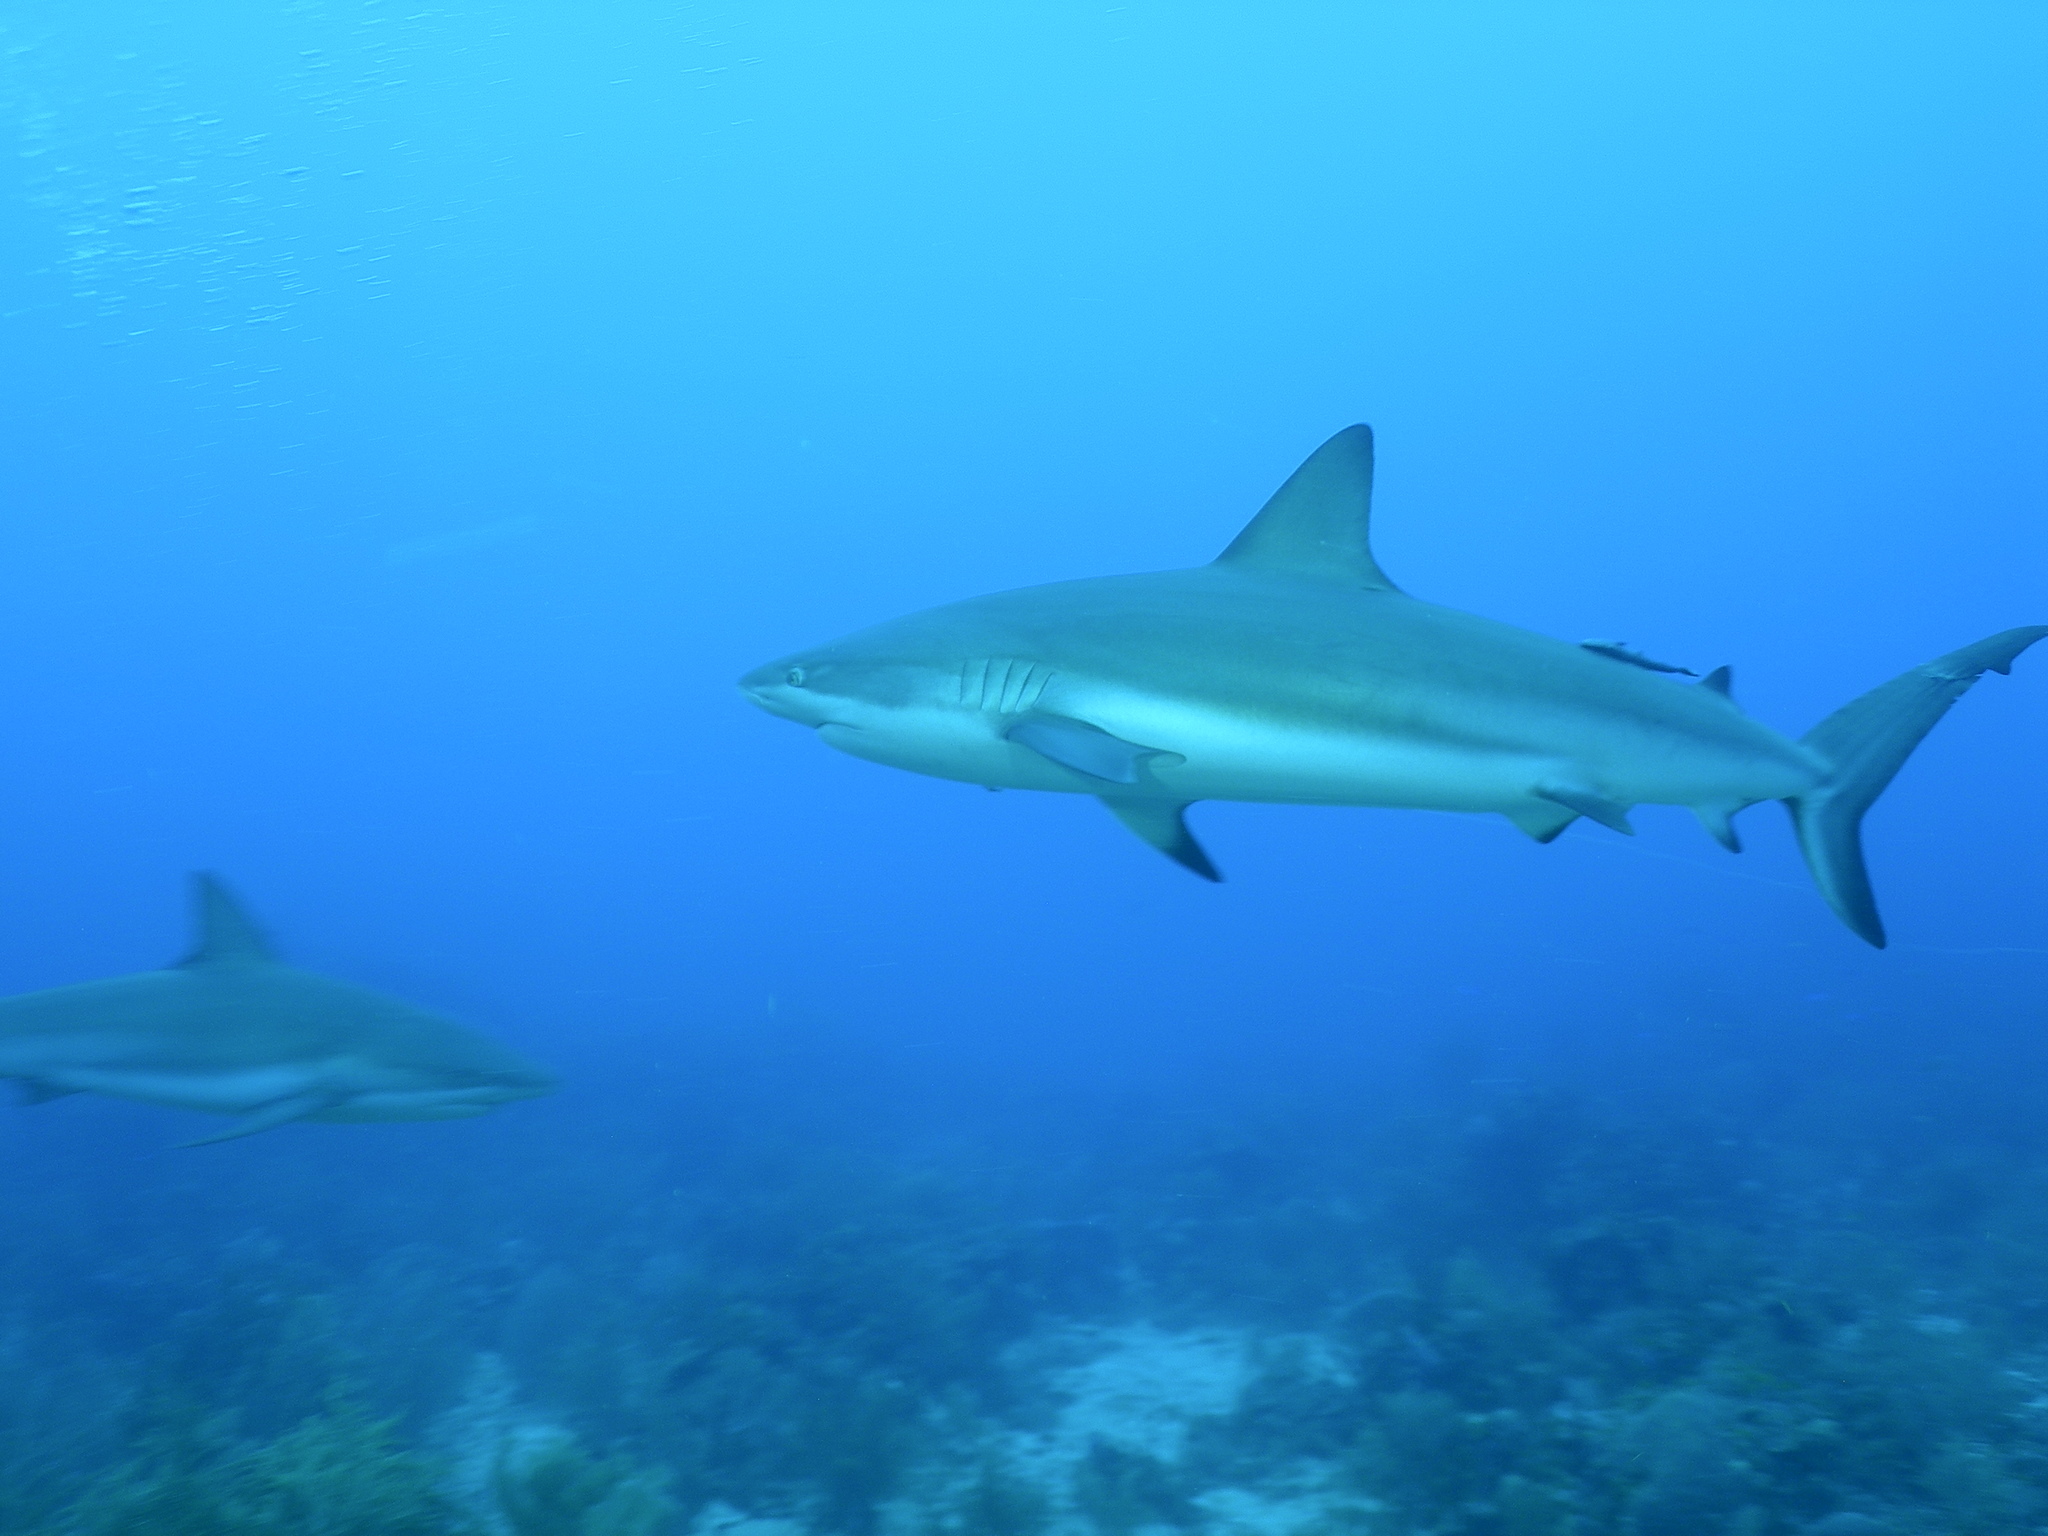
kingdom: Animalia
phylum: Chordata
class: Elasmobranchii
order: Carcharhiniformes
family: Carcharhinidae
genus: Carcharhinus
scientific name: Carcharhinus perezii
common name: Reef shark
